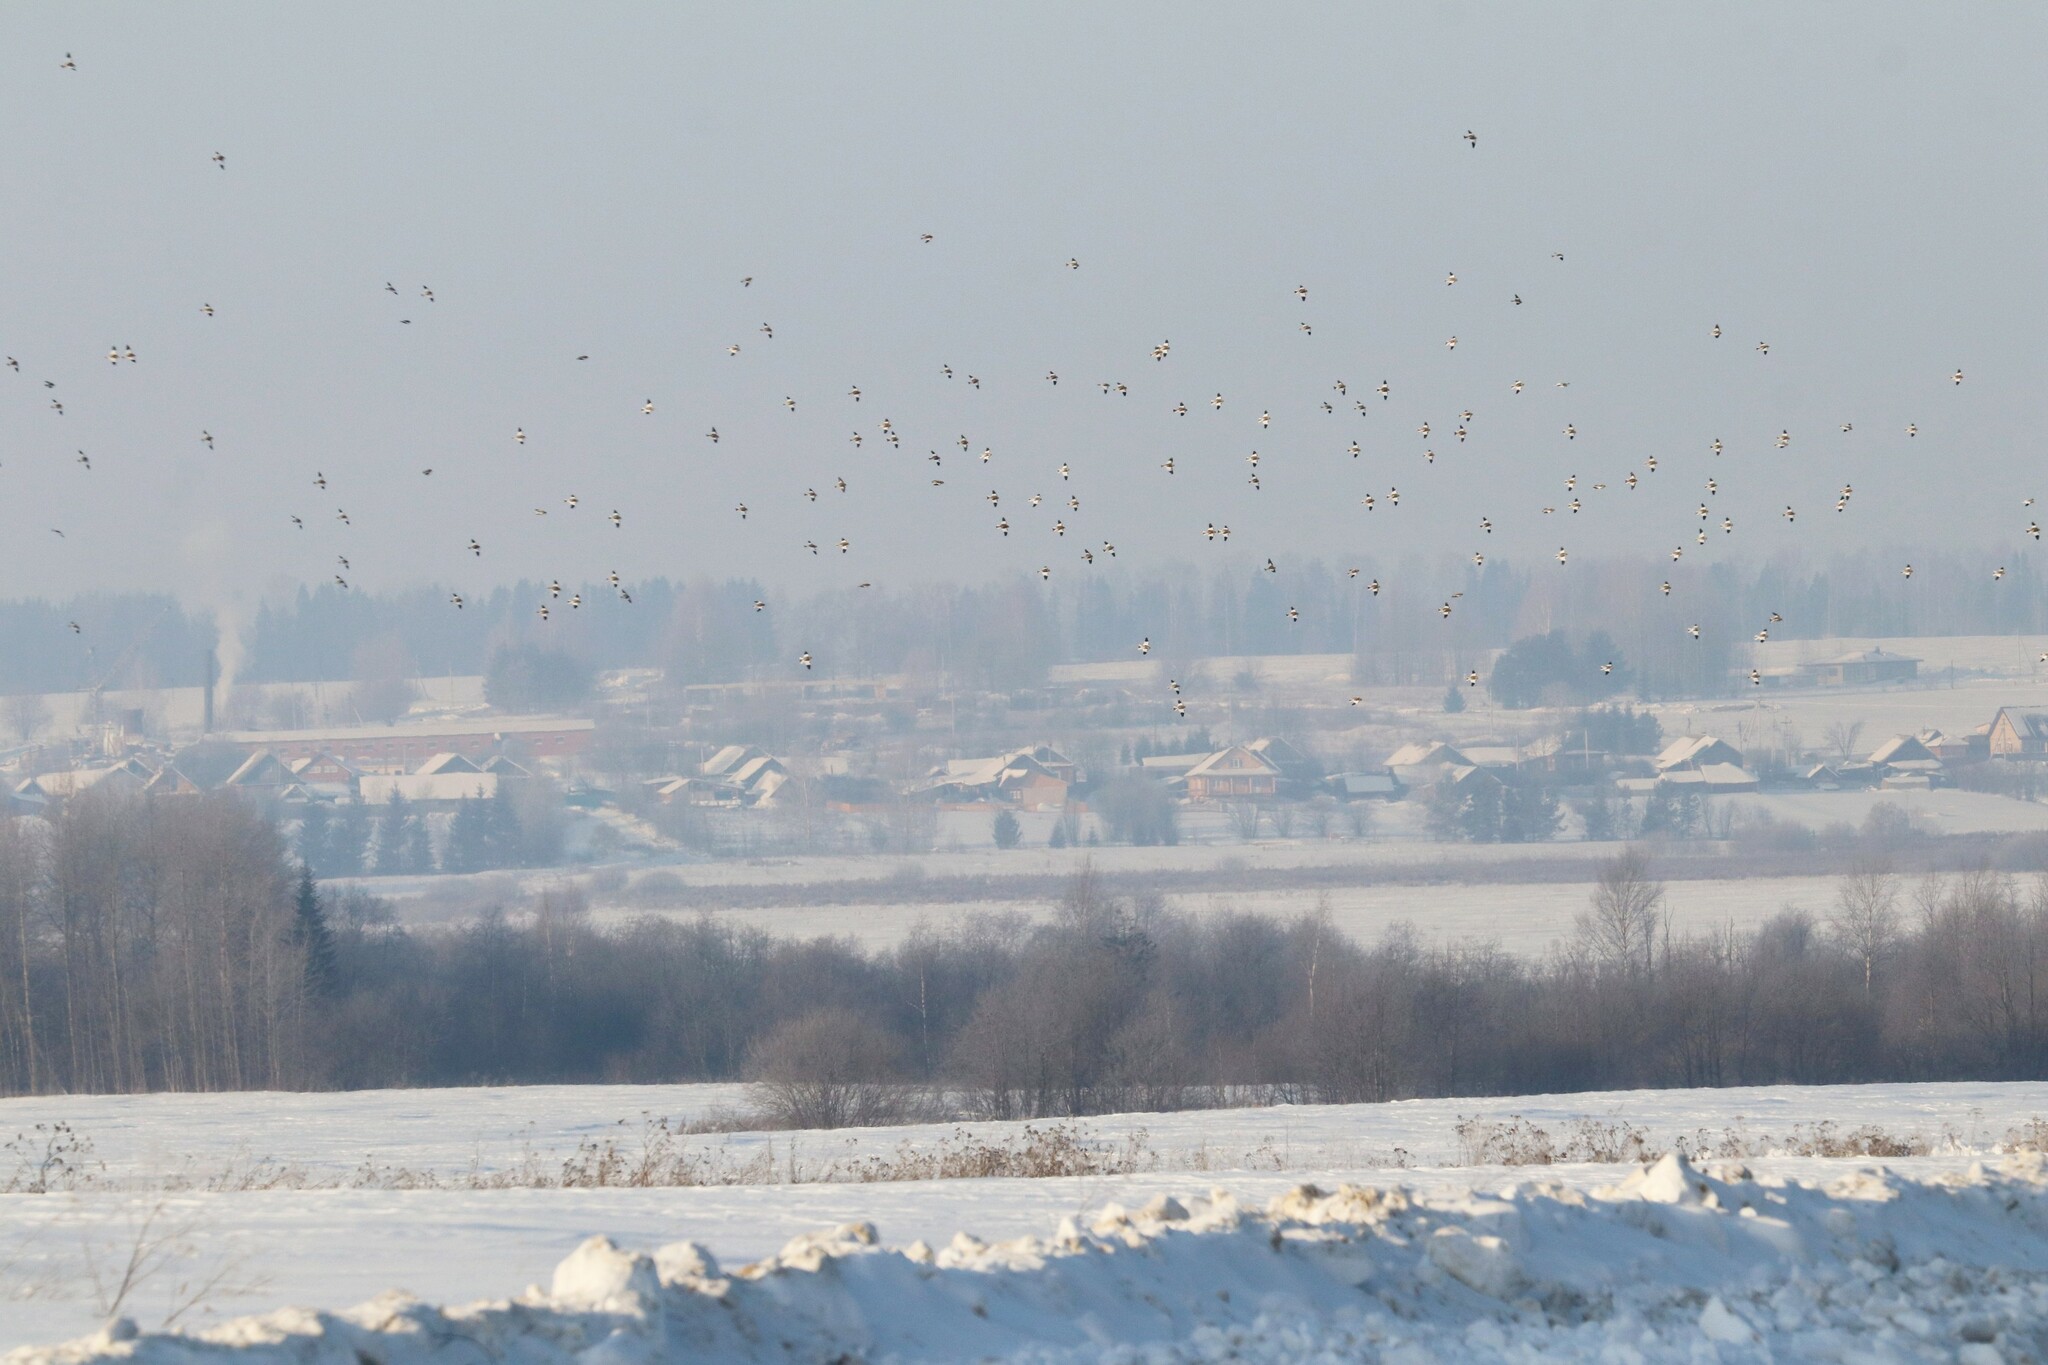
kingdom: Animalia
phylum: Chordata
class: Aves
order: Passeriformes
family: Calcariidae
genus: Plectrophenax
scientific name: Plectrophenax nivalis
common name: Snow bunting
